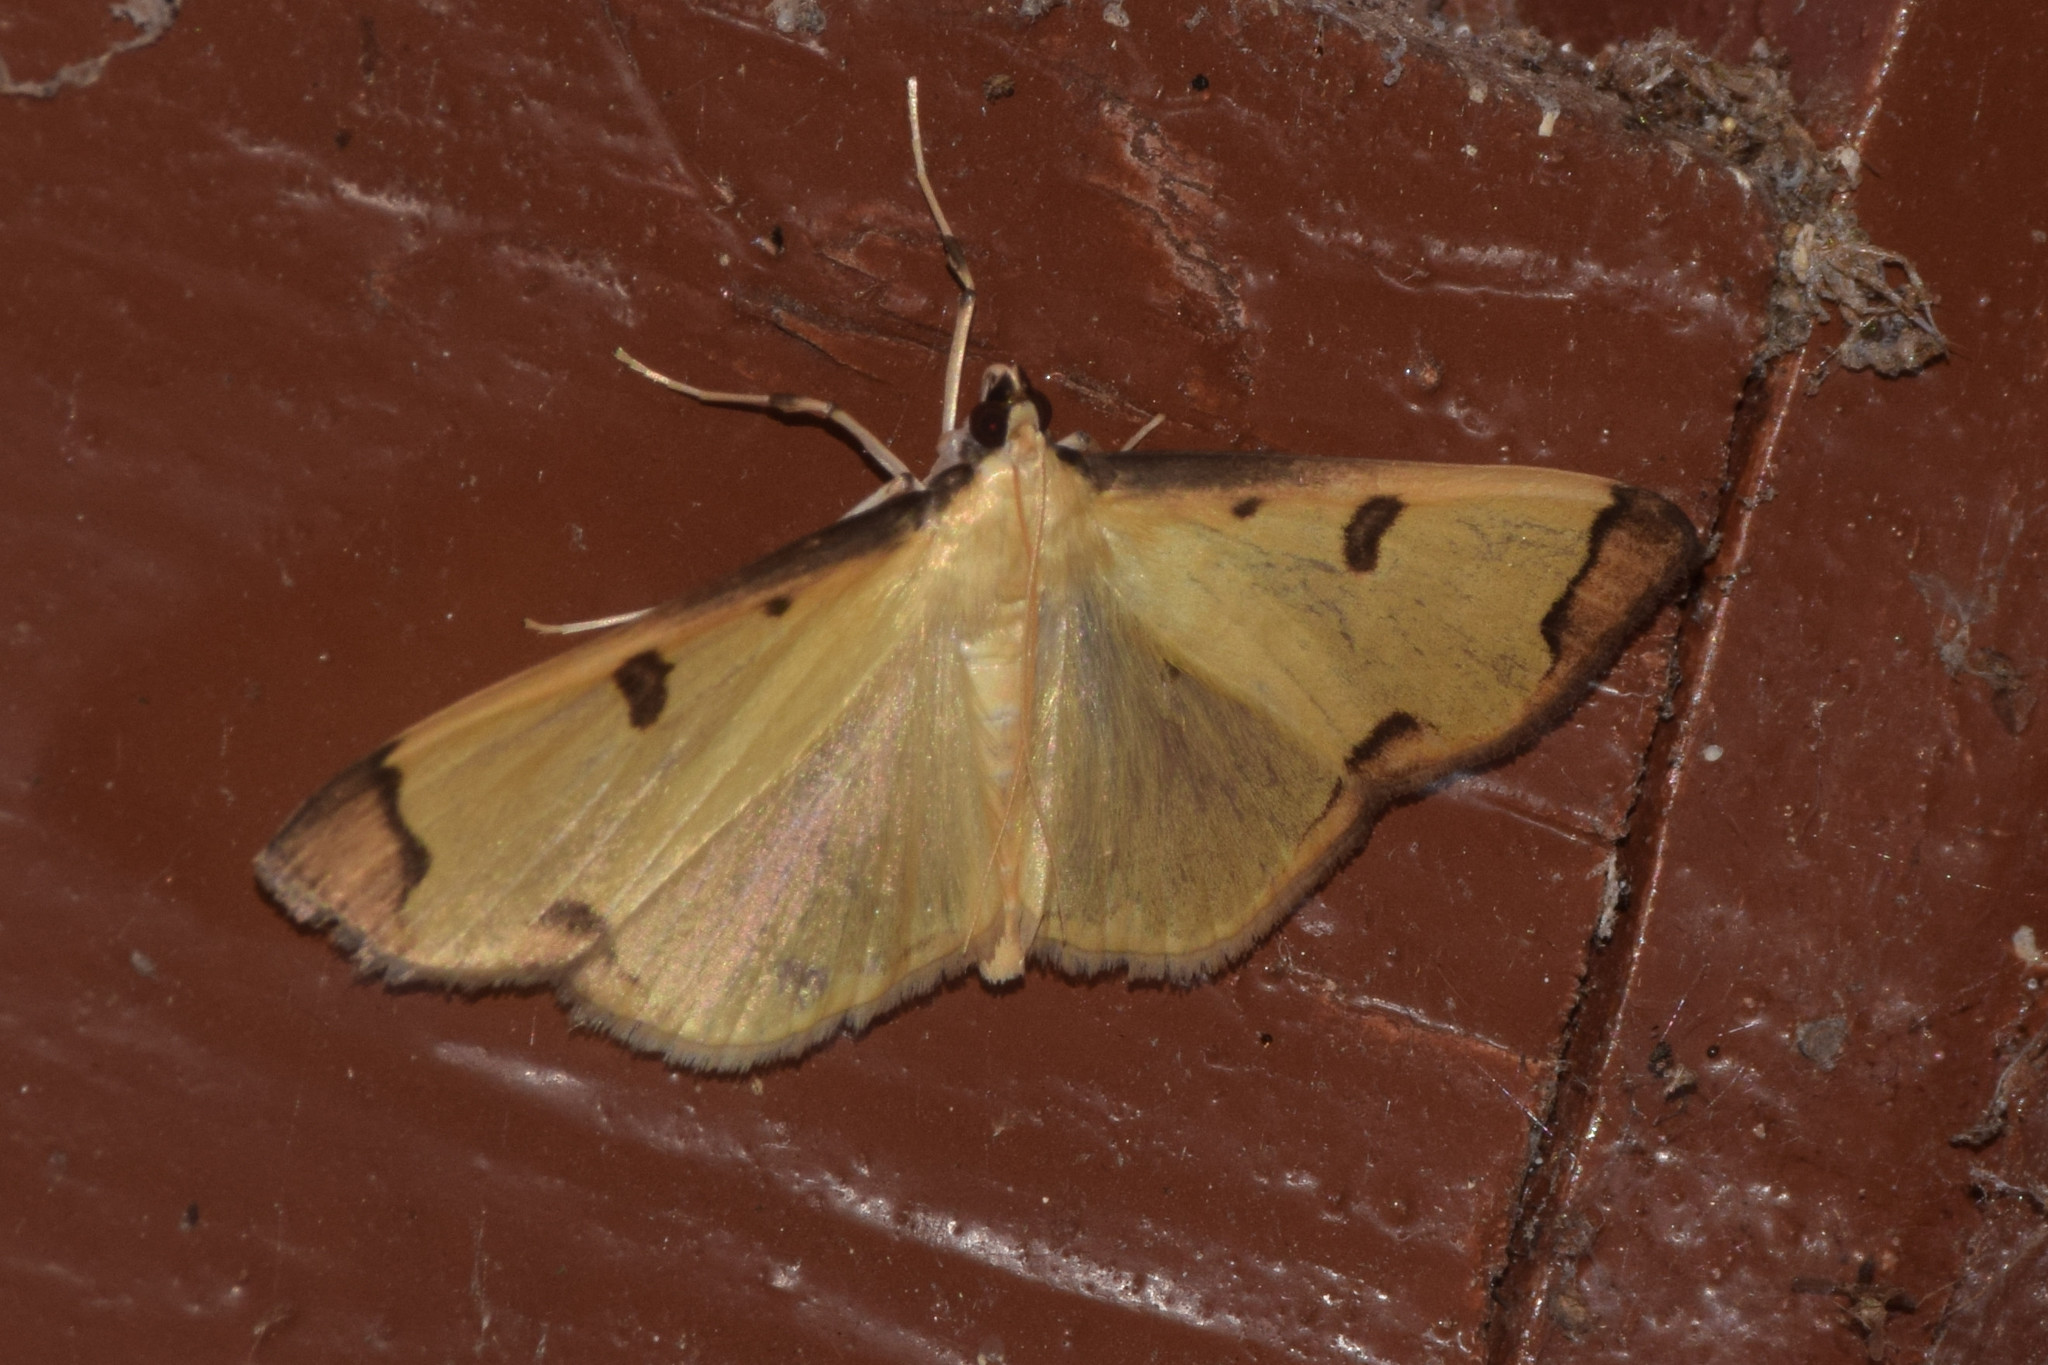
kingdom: Animalia
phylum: Arthropoda
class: Insecta
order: Lepidoptera
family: Pyralidae
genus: Uncobotyodes
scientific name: Uncobotyodes
